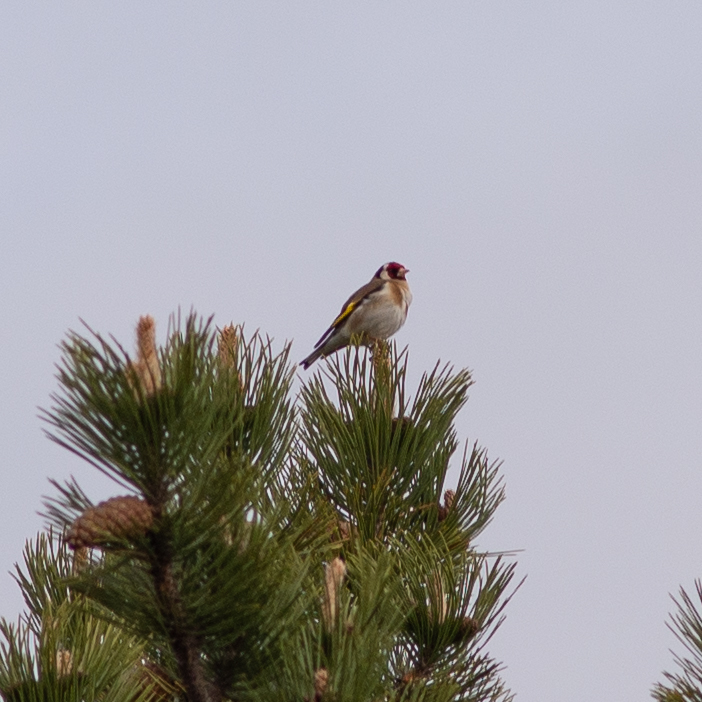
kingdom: Animalia
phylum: Chordata
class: Aves
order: Passeriformes
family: Fringillidae
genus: Carduelis
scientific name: Carduelis carduelis
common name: European goldfinch
